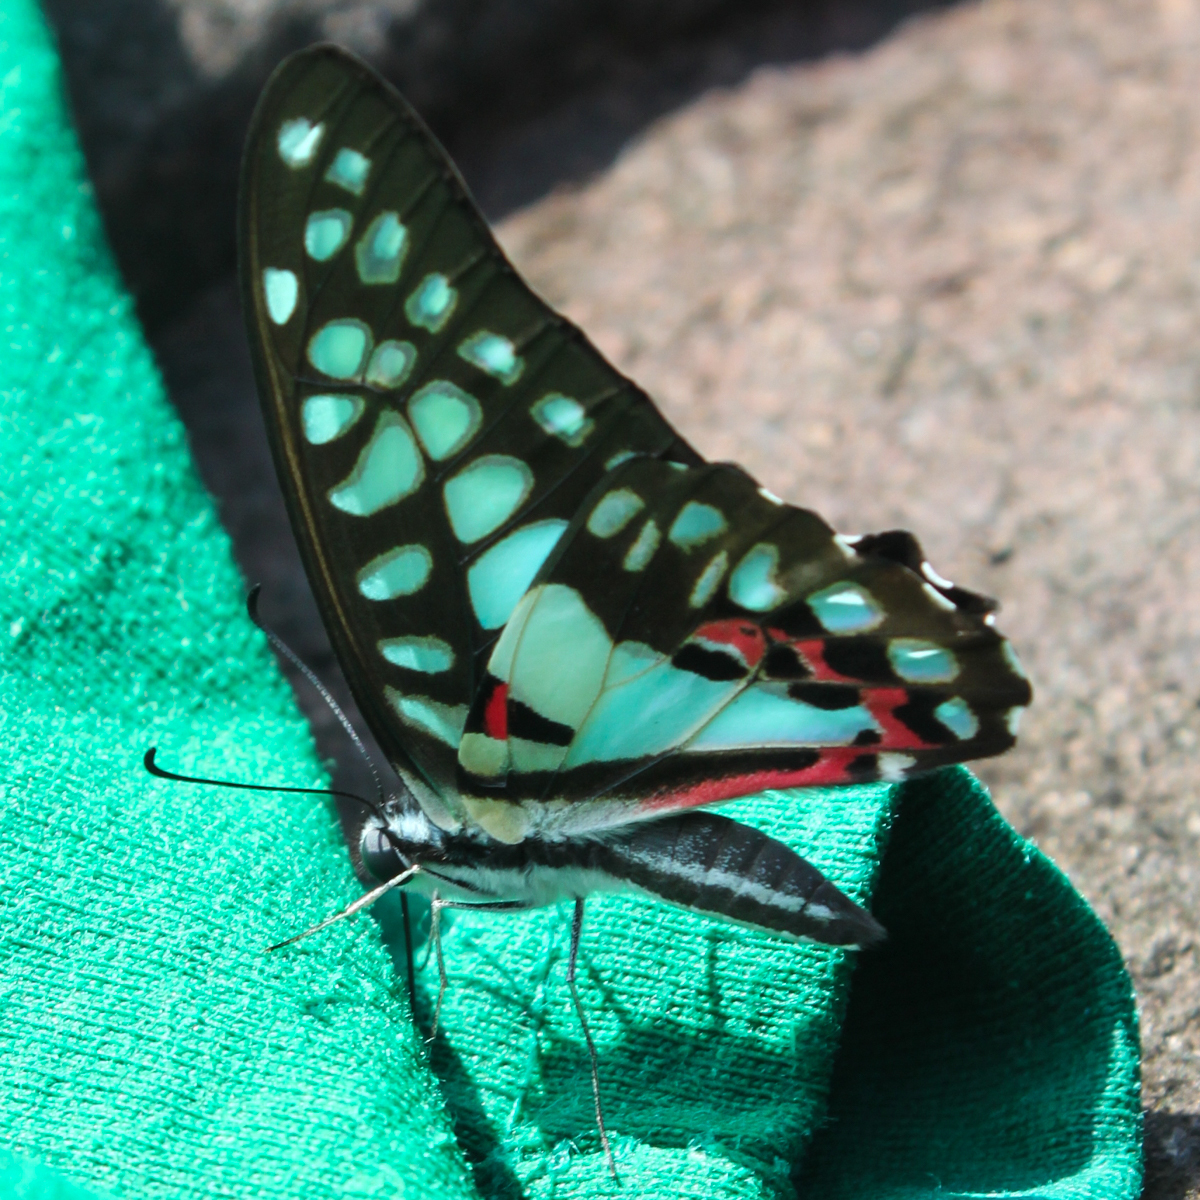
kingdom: Animalia
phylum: Arthropoda
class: Insecta
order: Lepidoptera
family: Papilionidae
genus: Graphium
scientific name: Graphium doson
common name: Common jay
